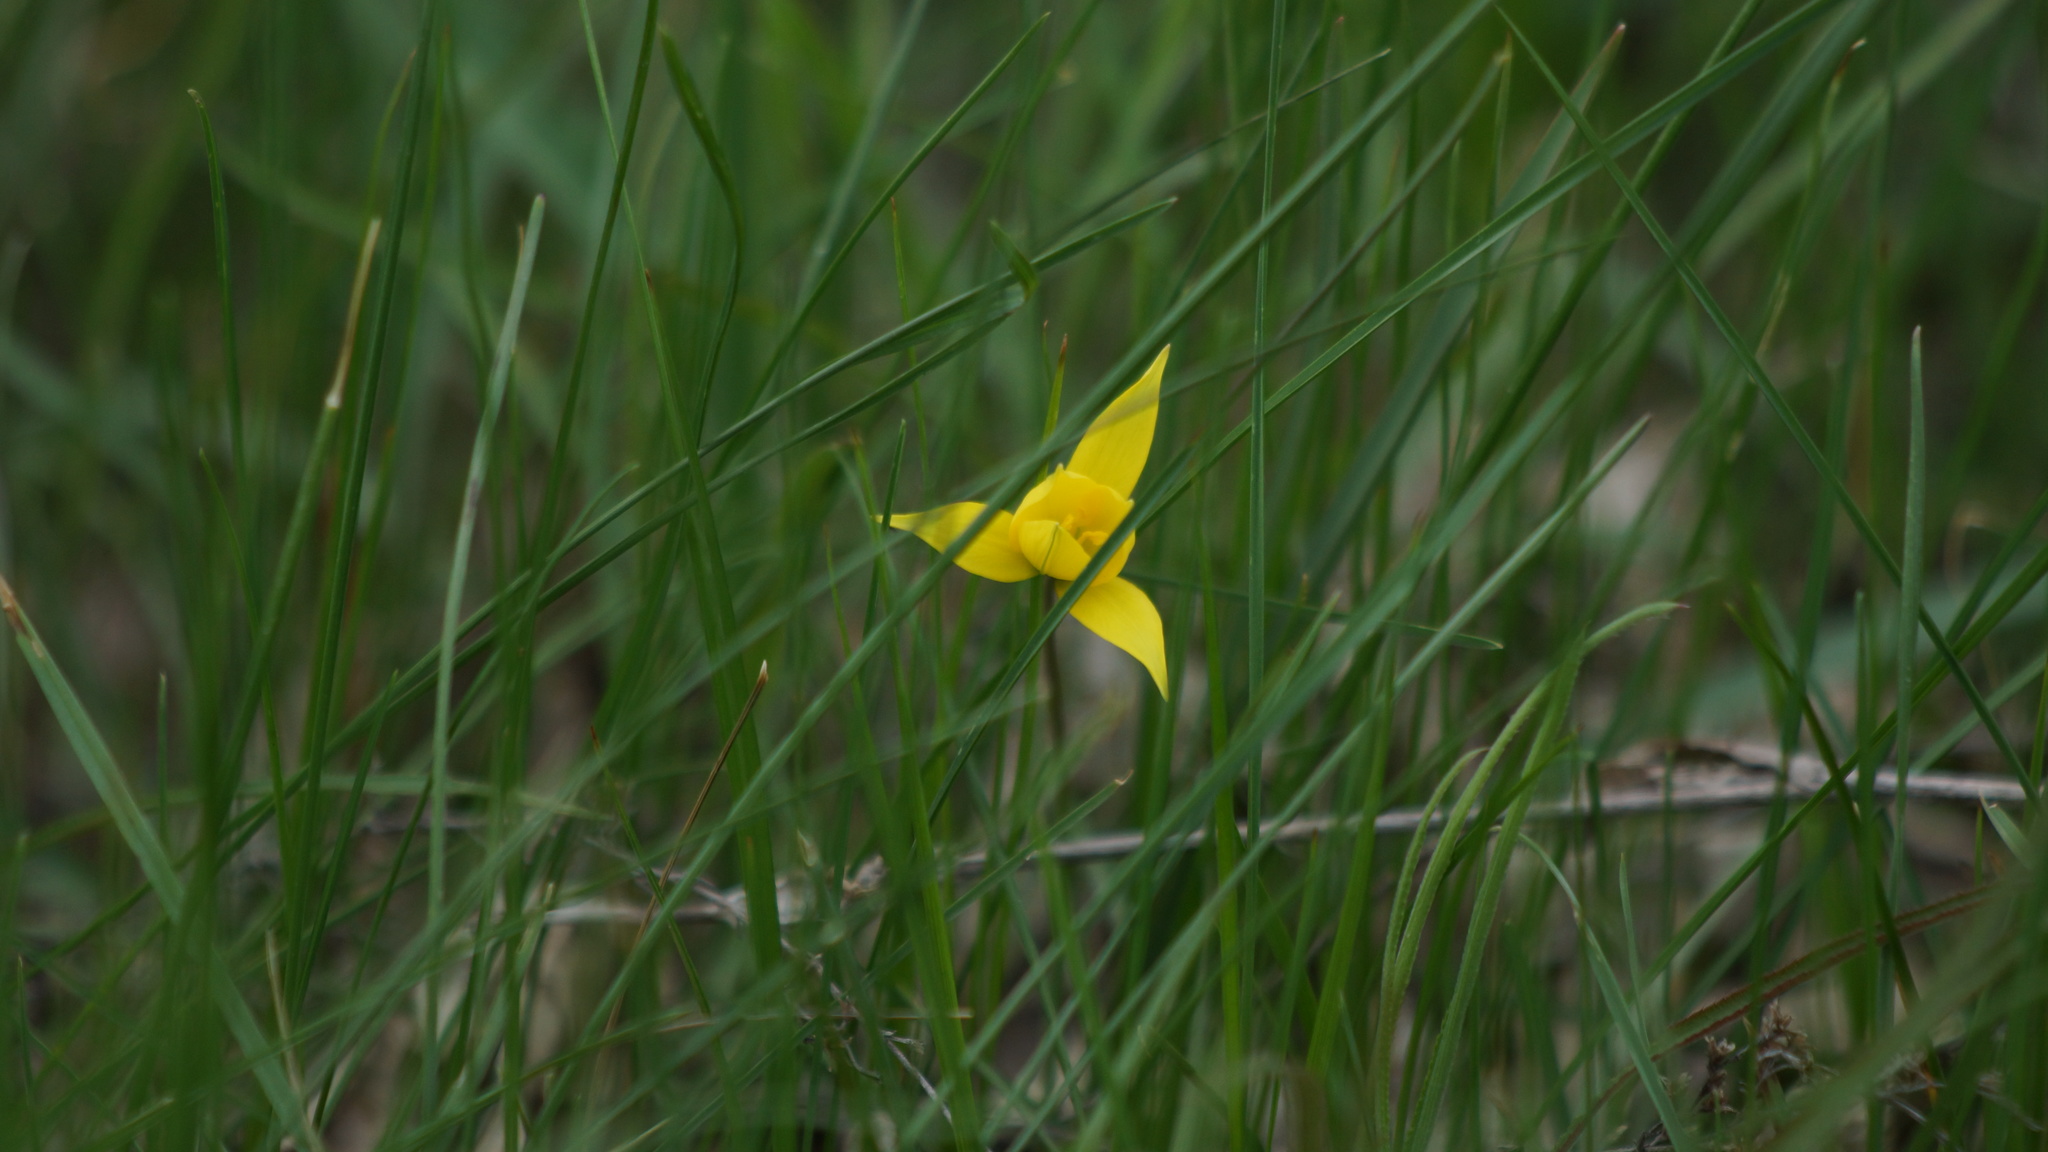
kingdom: Plantae
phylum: Tracheophyta
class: Liliopsida
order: Liliales
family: Liliaceae
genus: Tulipa
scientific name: Tulipa sylvestris
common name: Wild tulip
